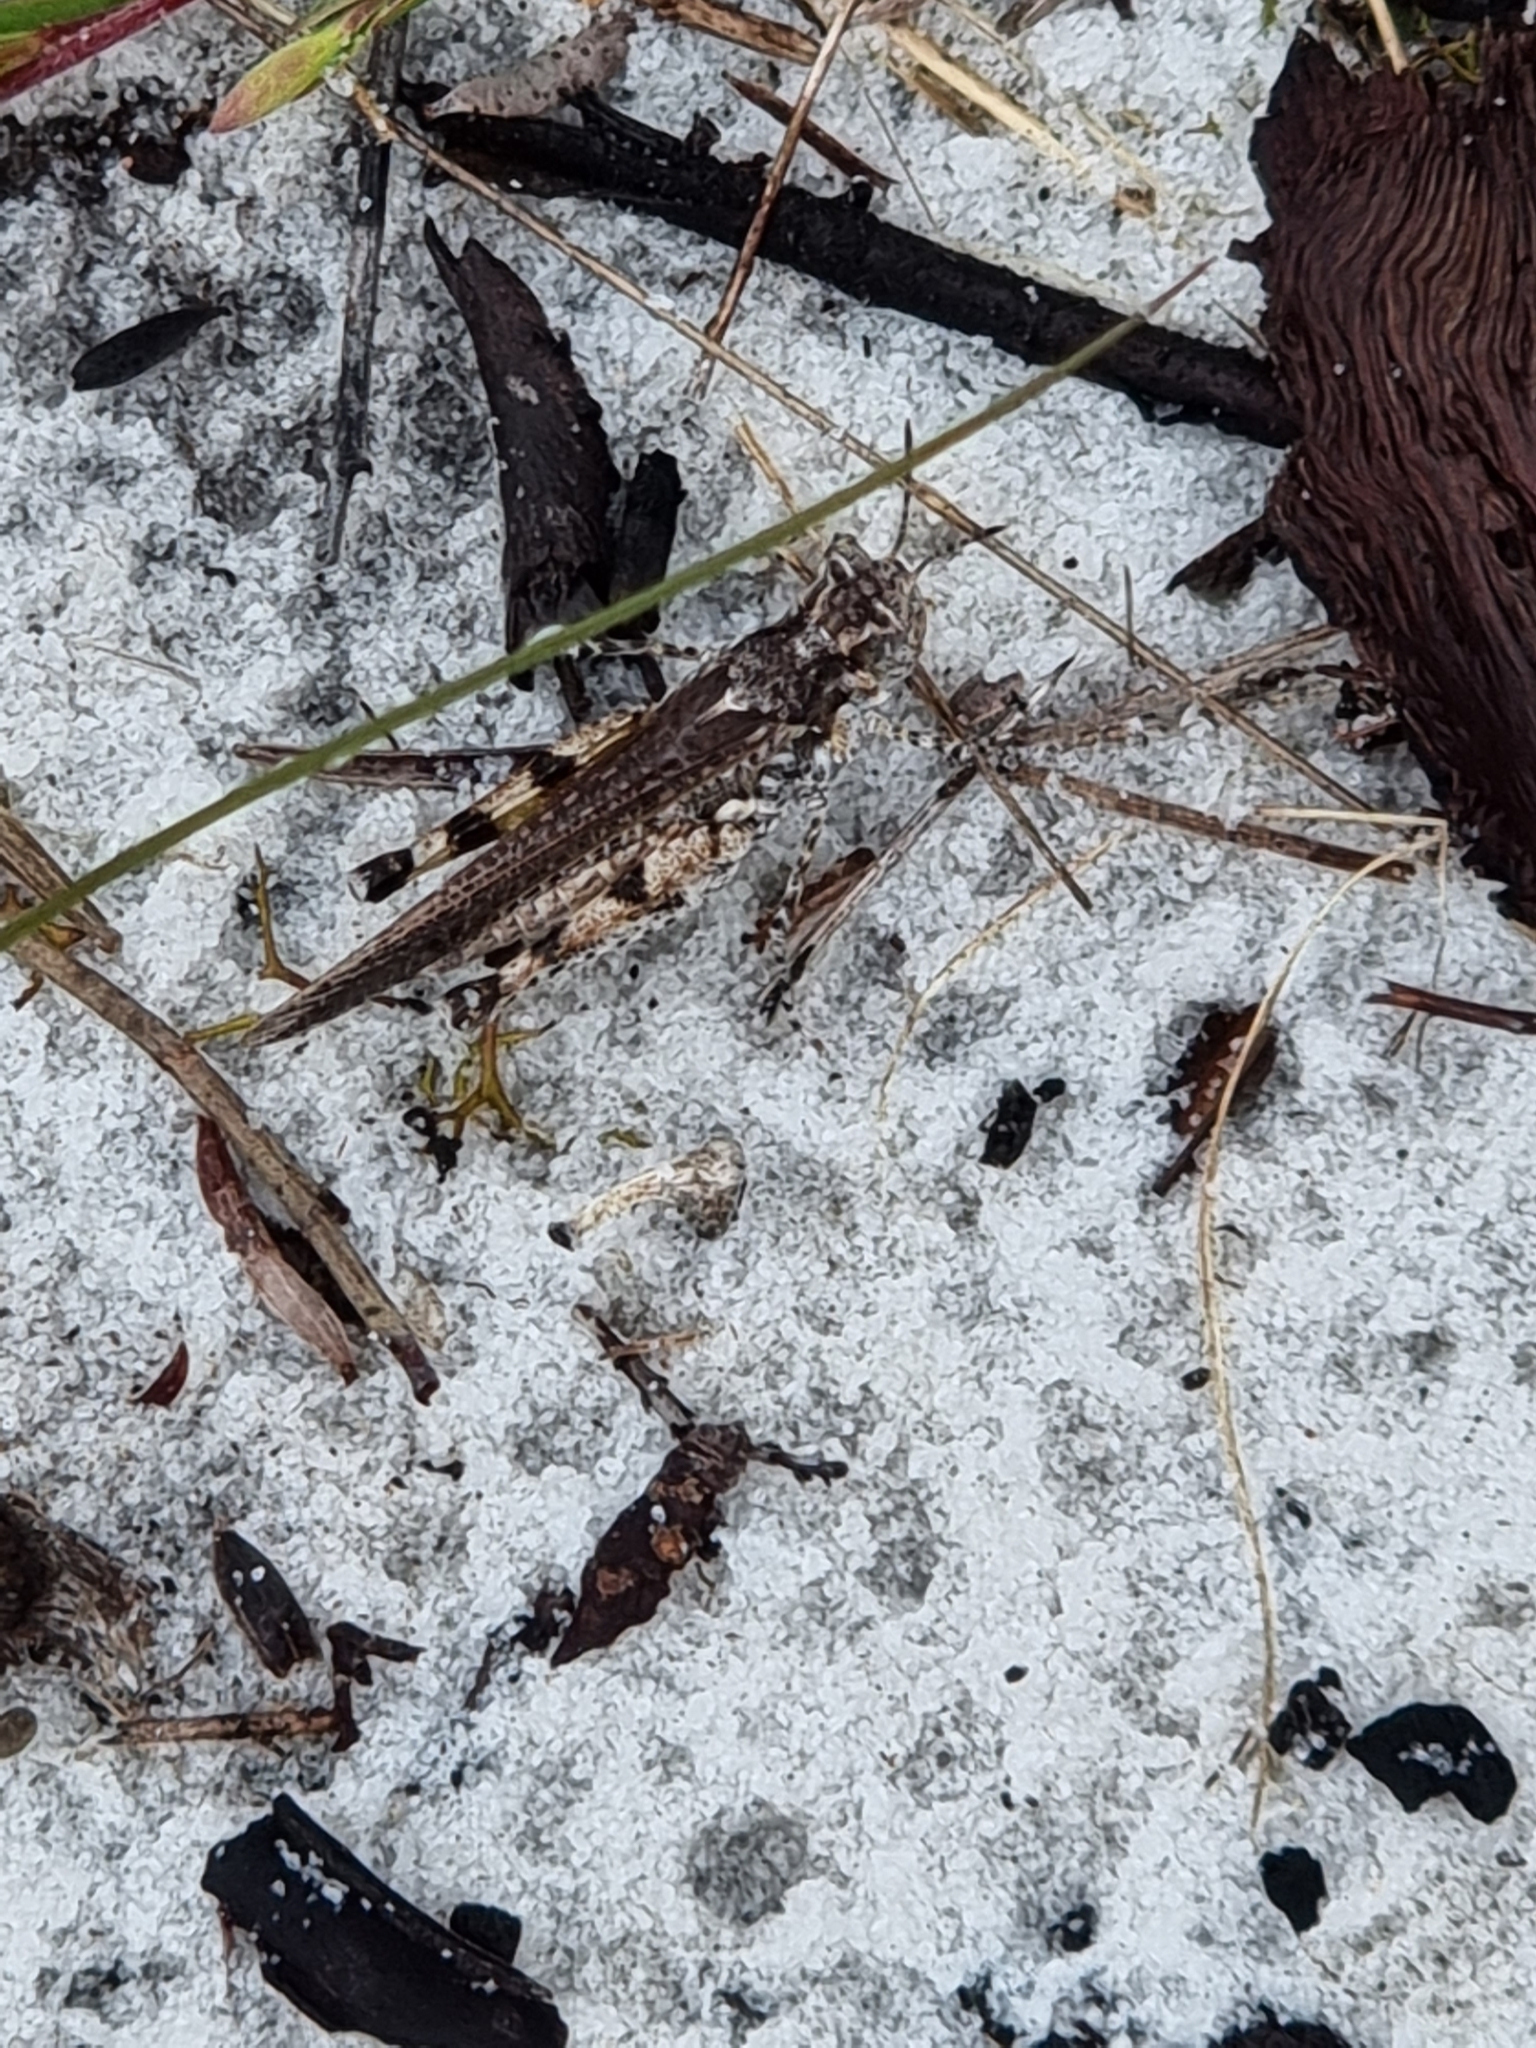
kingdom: Animalia
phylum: Arthropoda
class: Insecta
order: Orthoptera
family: Acrididae
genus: Pycnostictus
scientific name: Pycnostictus seriatus
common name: Common bandwing
